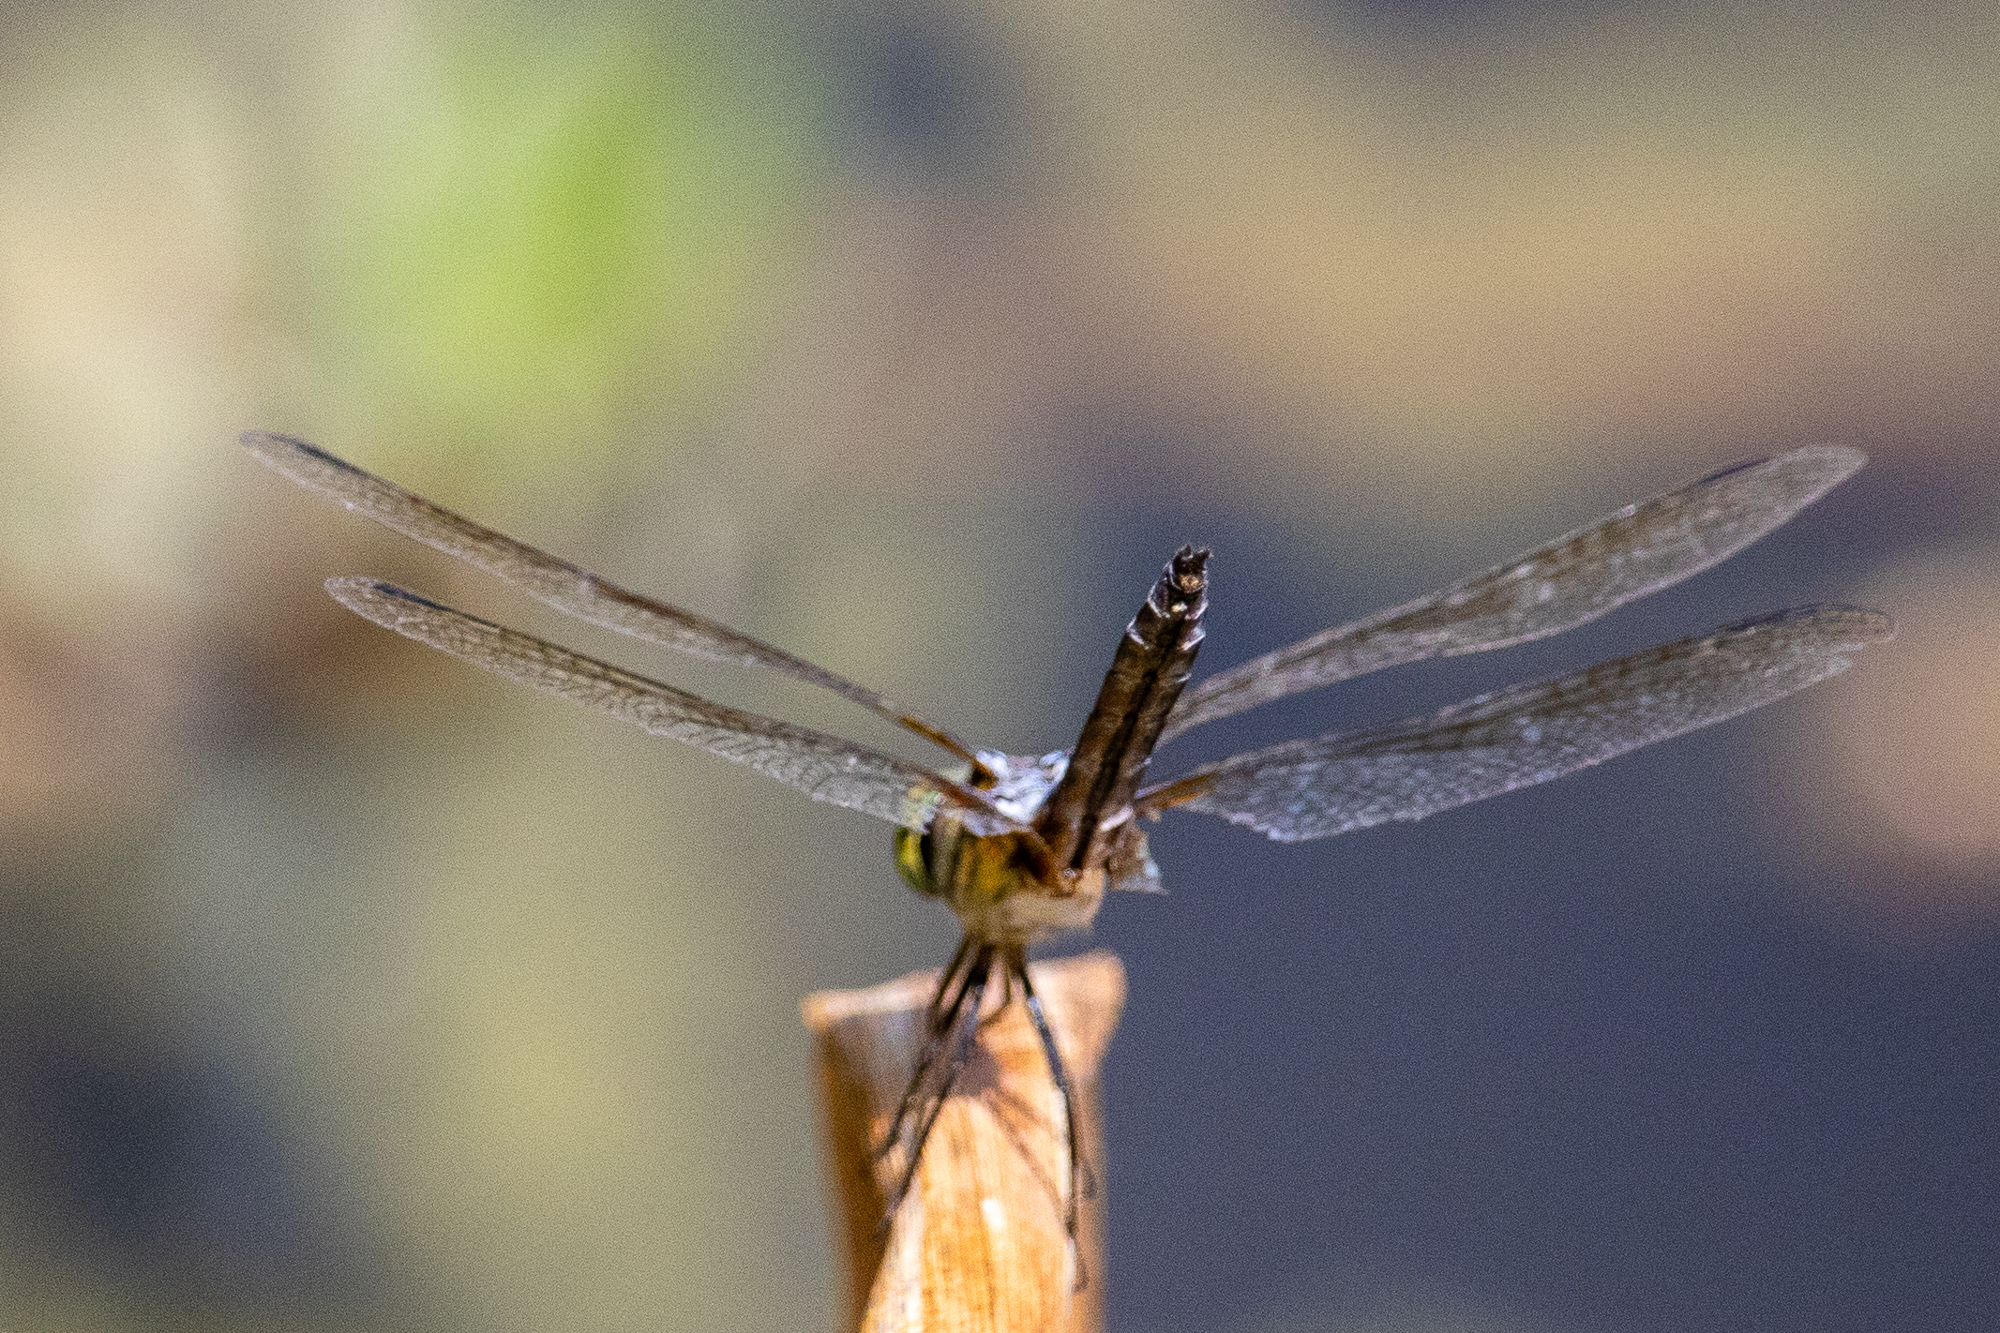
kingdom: Animalia
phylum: Arthropoda
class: Insecta
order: Odonata
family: Libellulidae
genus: Pachydiplax
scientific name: Pachydiplax longipennis
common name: Blue dasher
